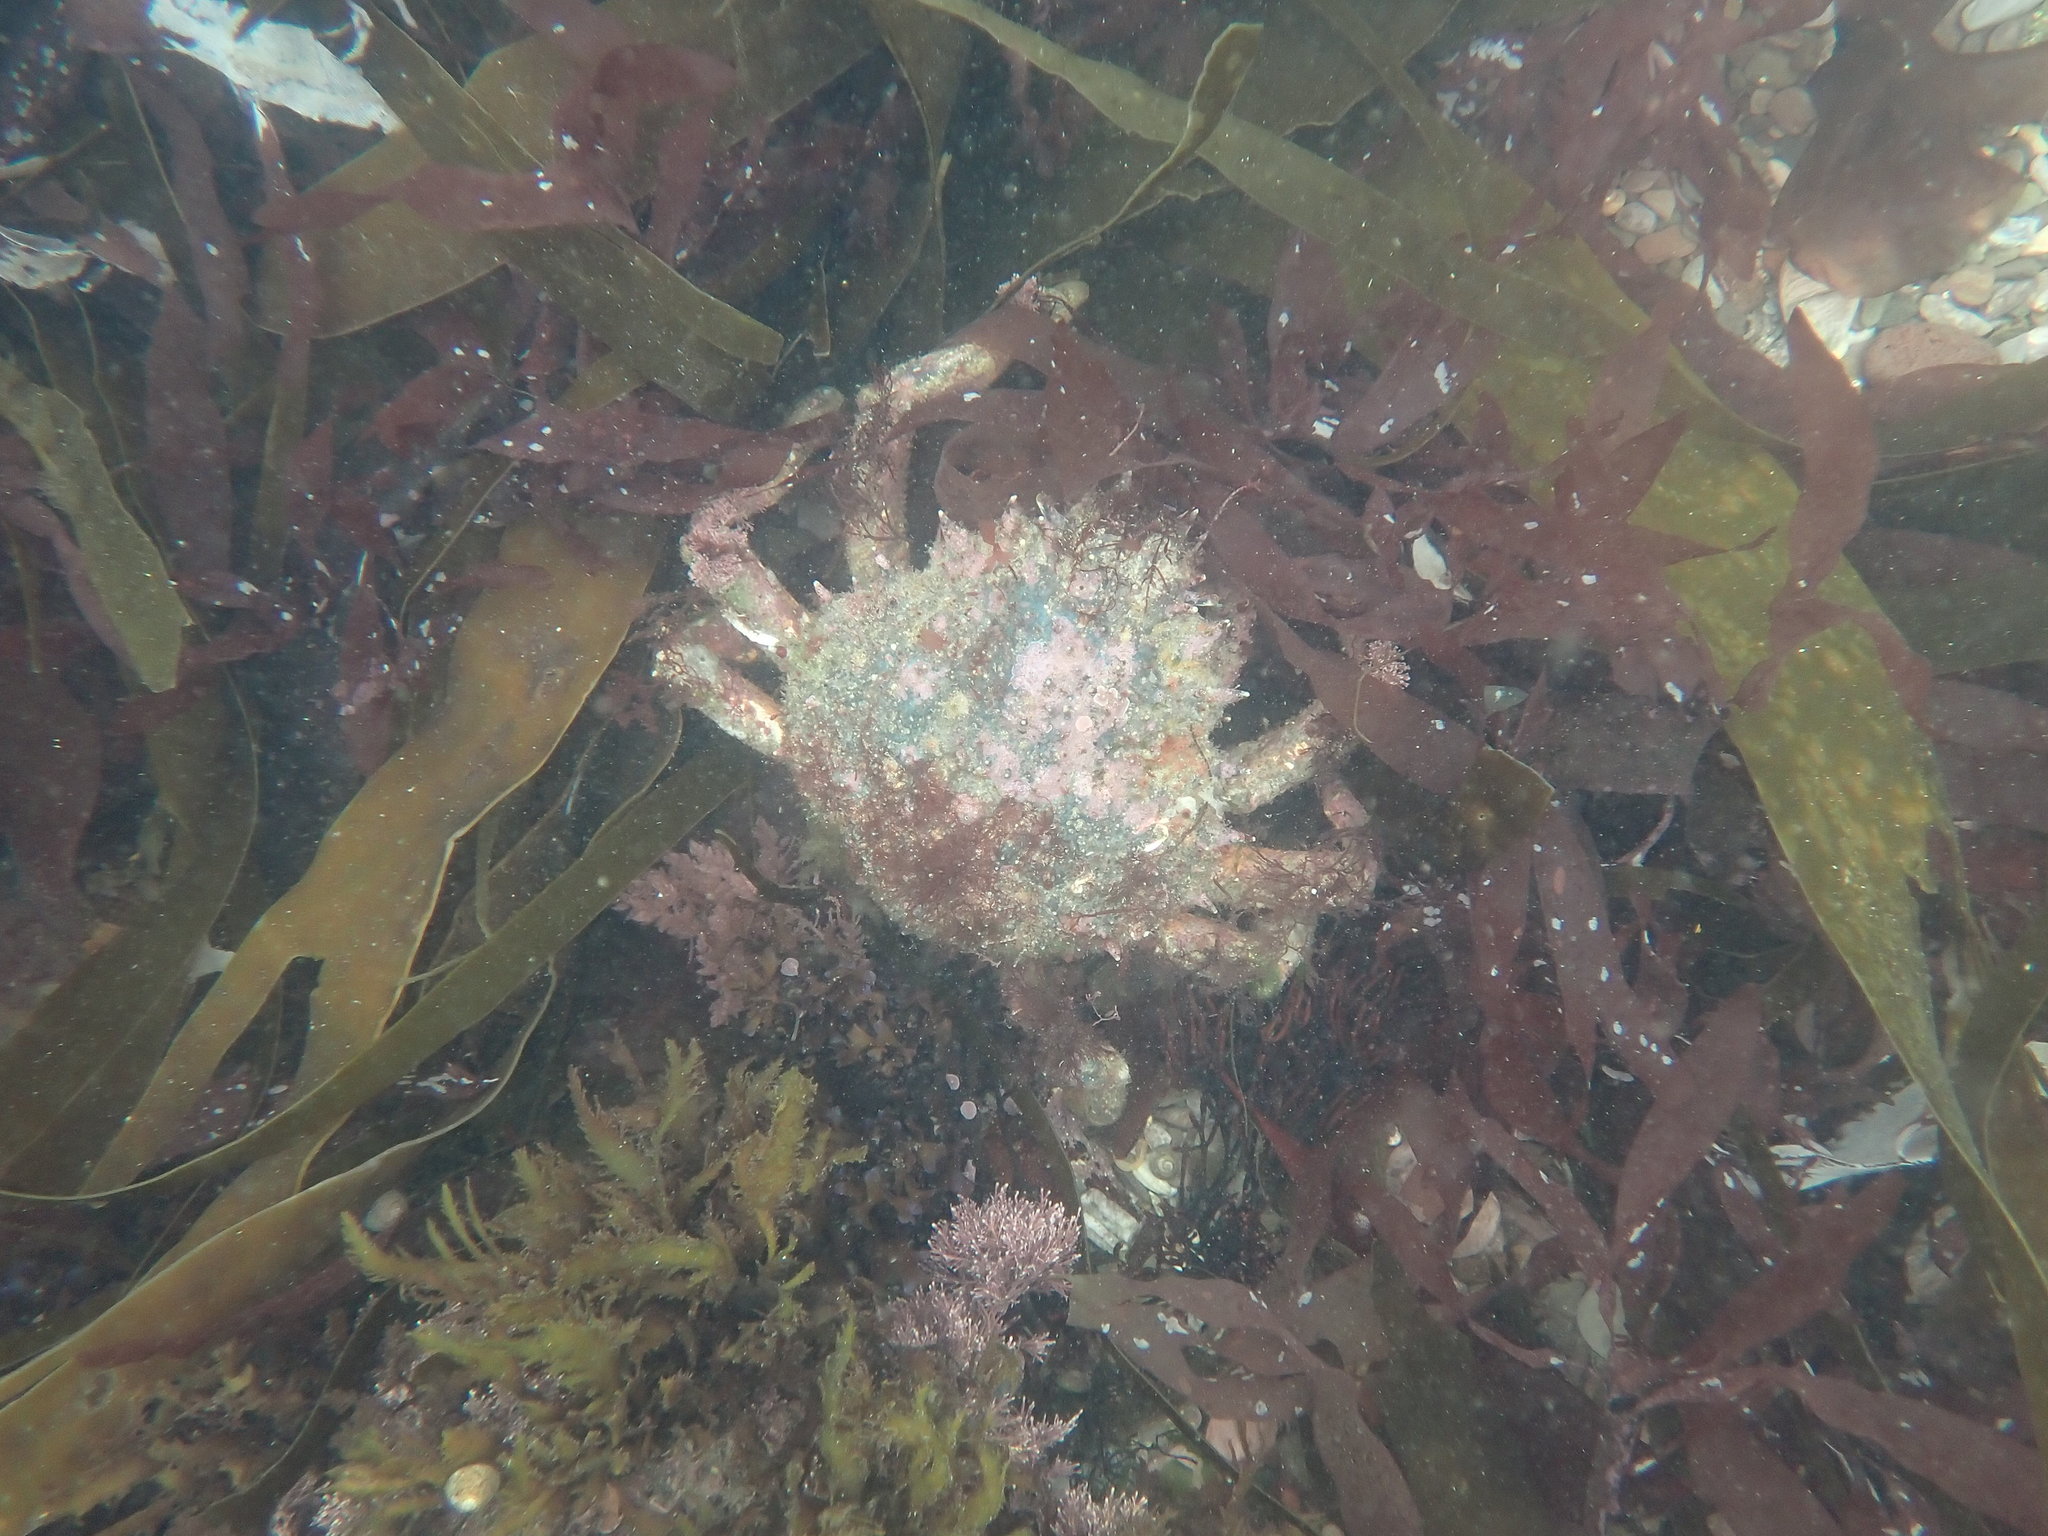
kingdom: Animalia
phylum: Arthropoda
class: Malacostraca
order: Decapoda
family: Majidae
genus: Maja
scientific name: Maja brachydactyla
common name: Common spider crab
